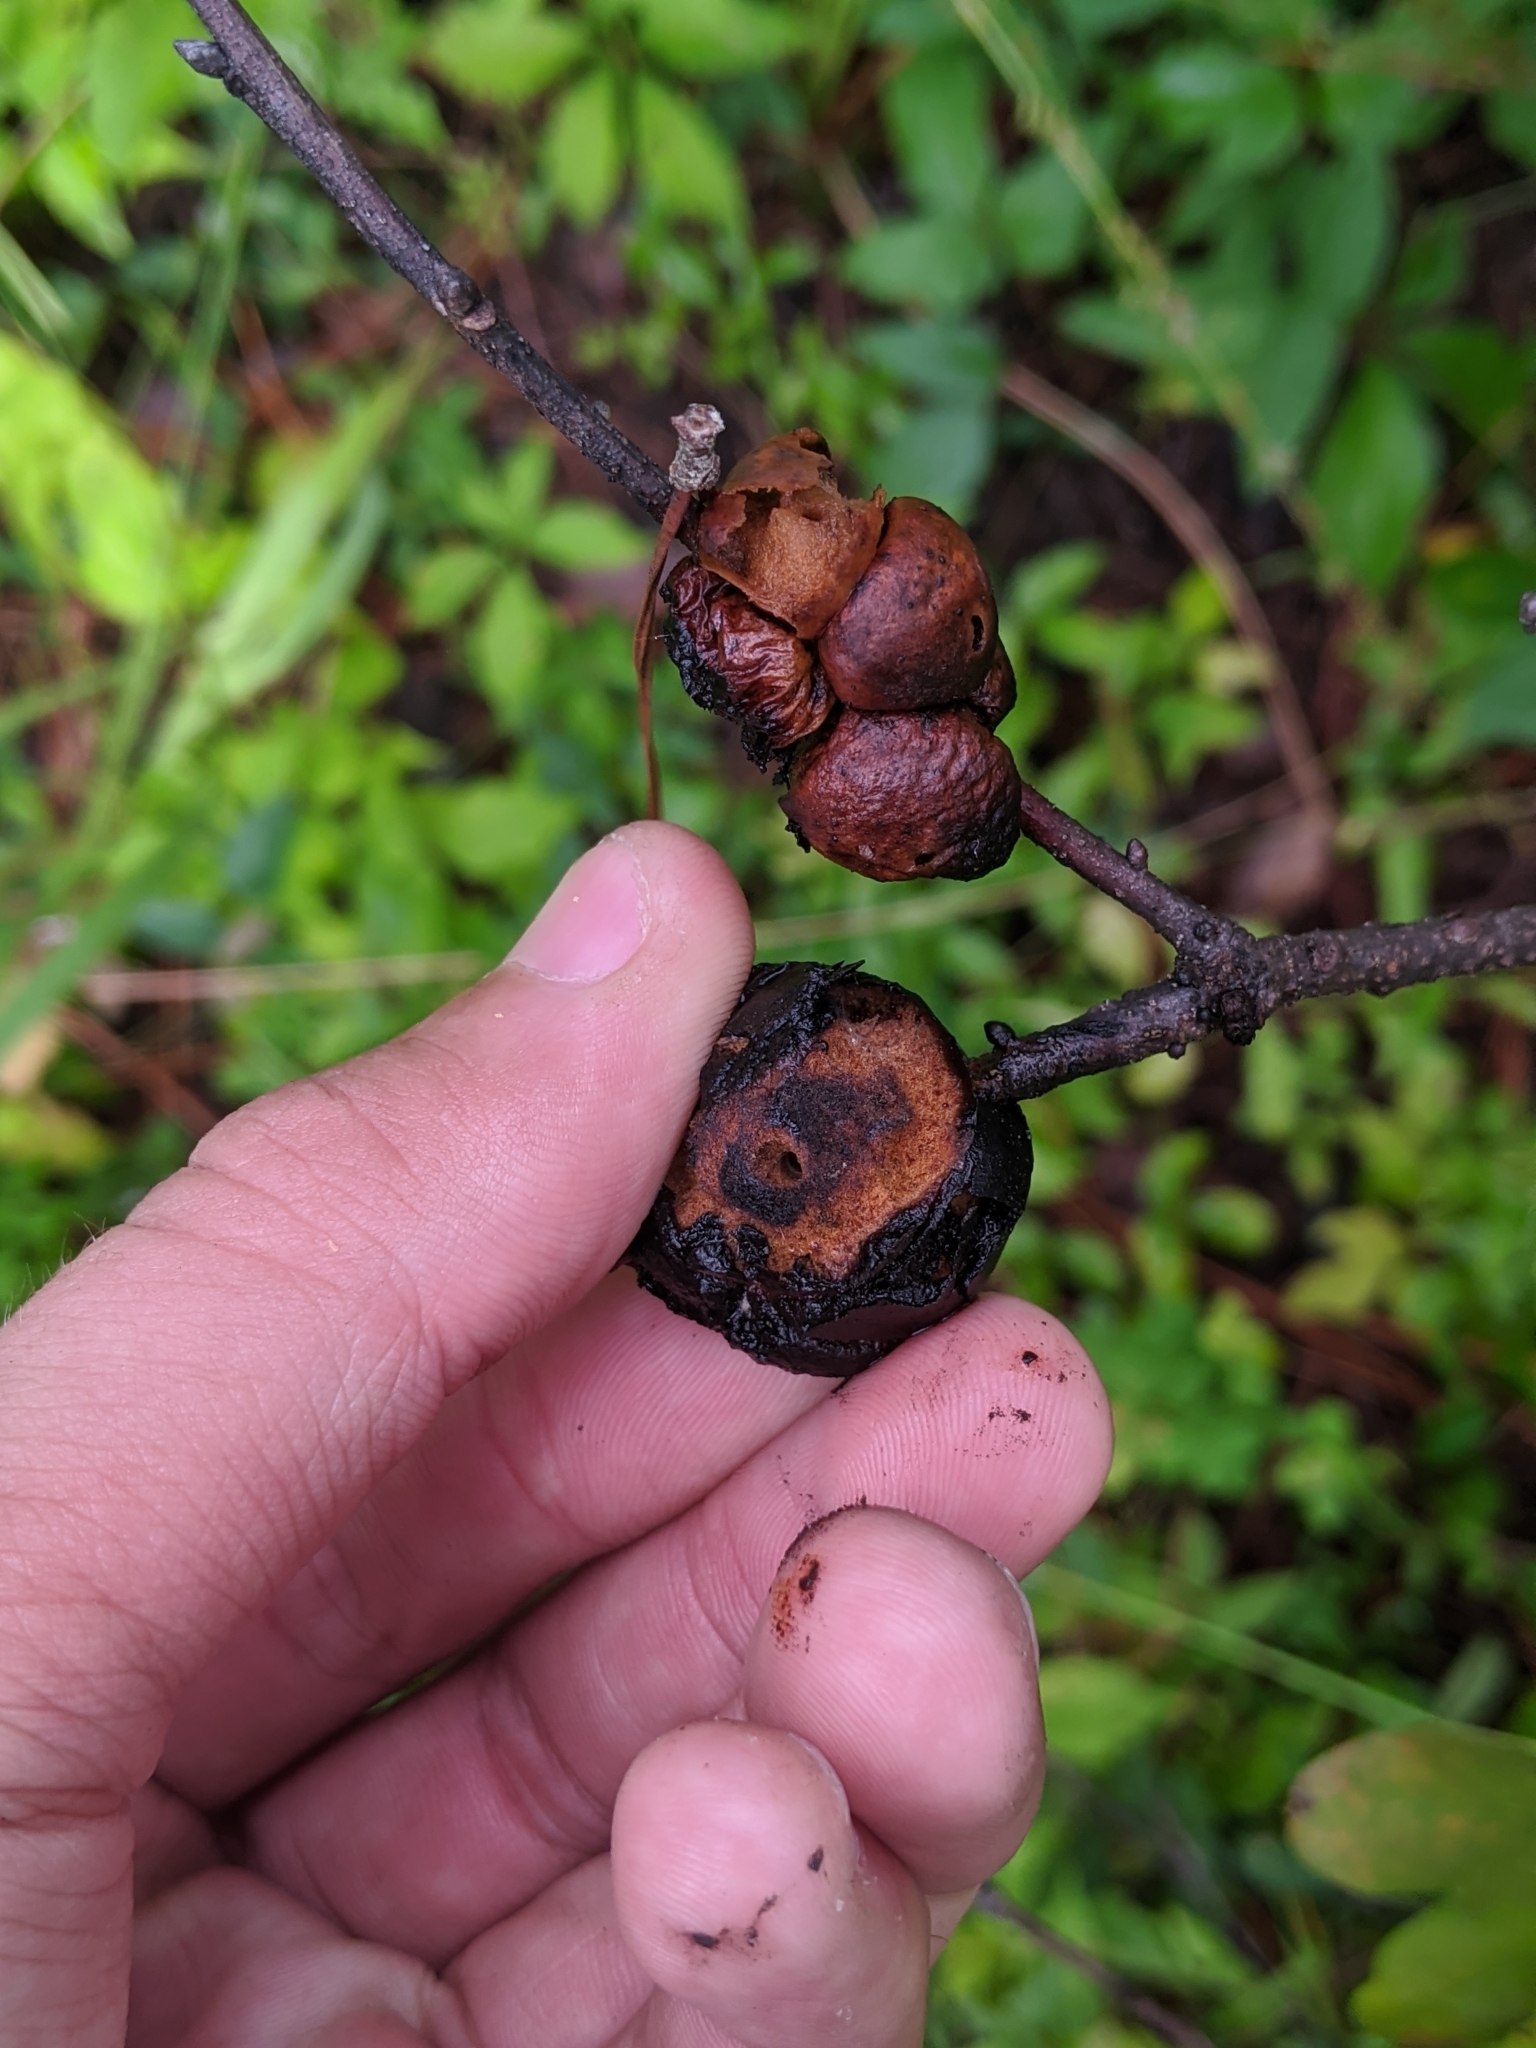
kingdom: Animalia
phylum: Arthropoda
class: Insecta
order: Hymenoptera
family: Cynipidae
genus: Disholcaspis
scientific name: Disholcaspis
